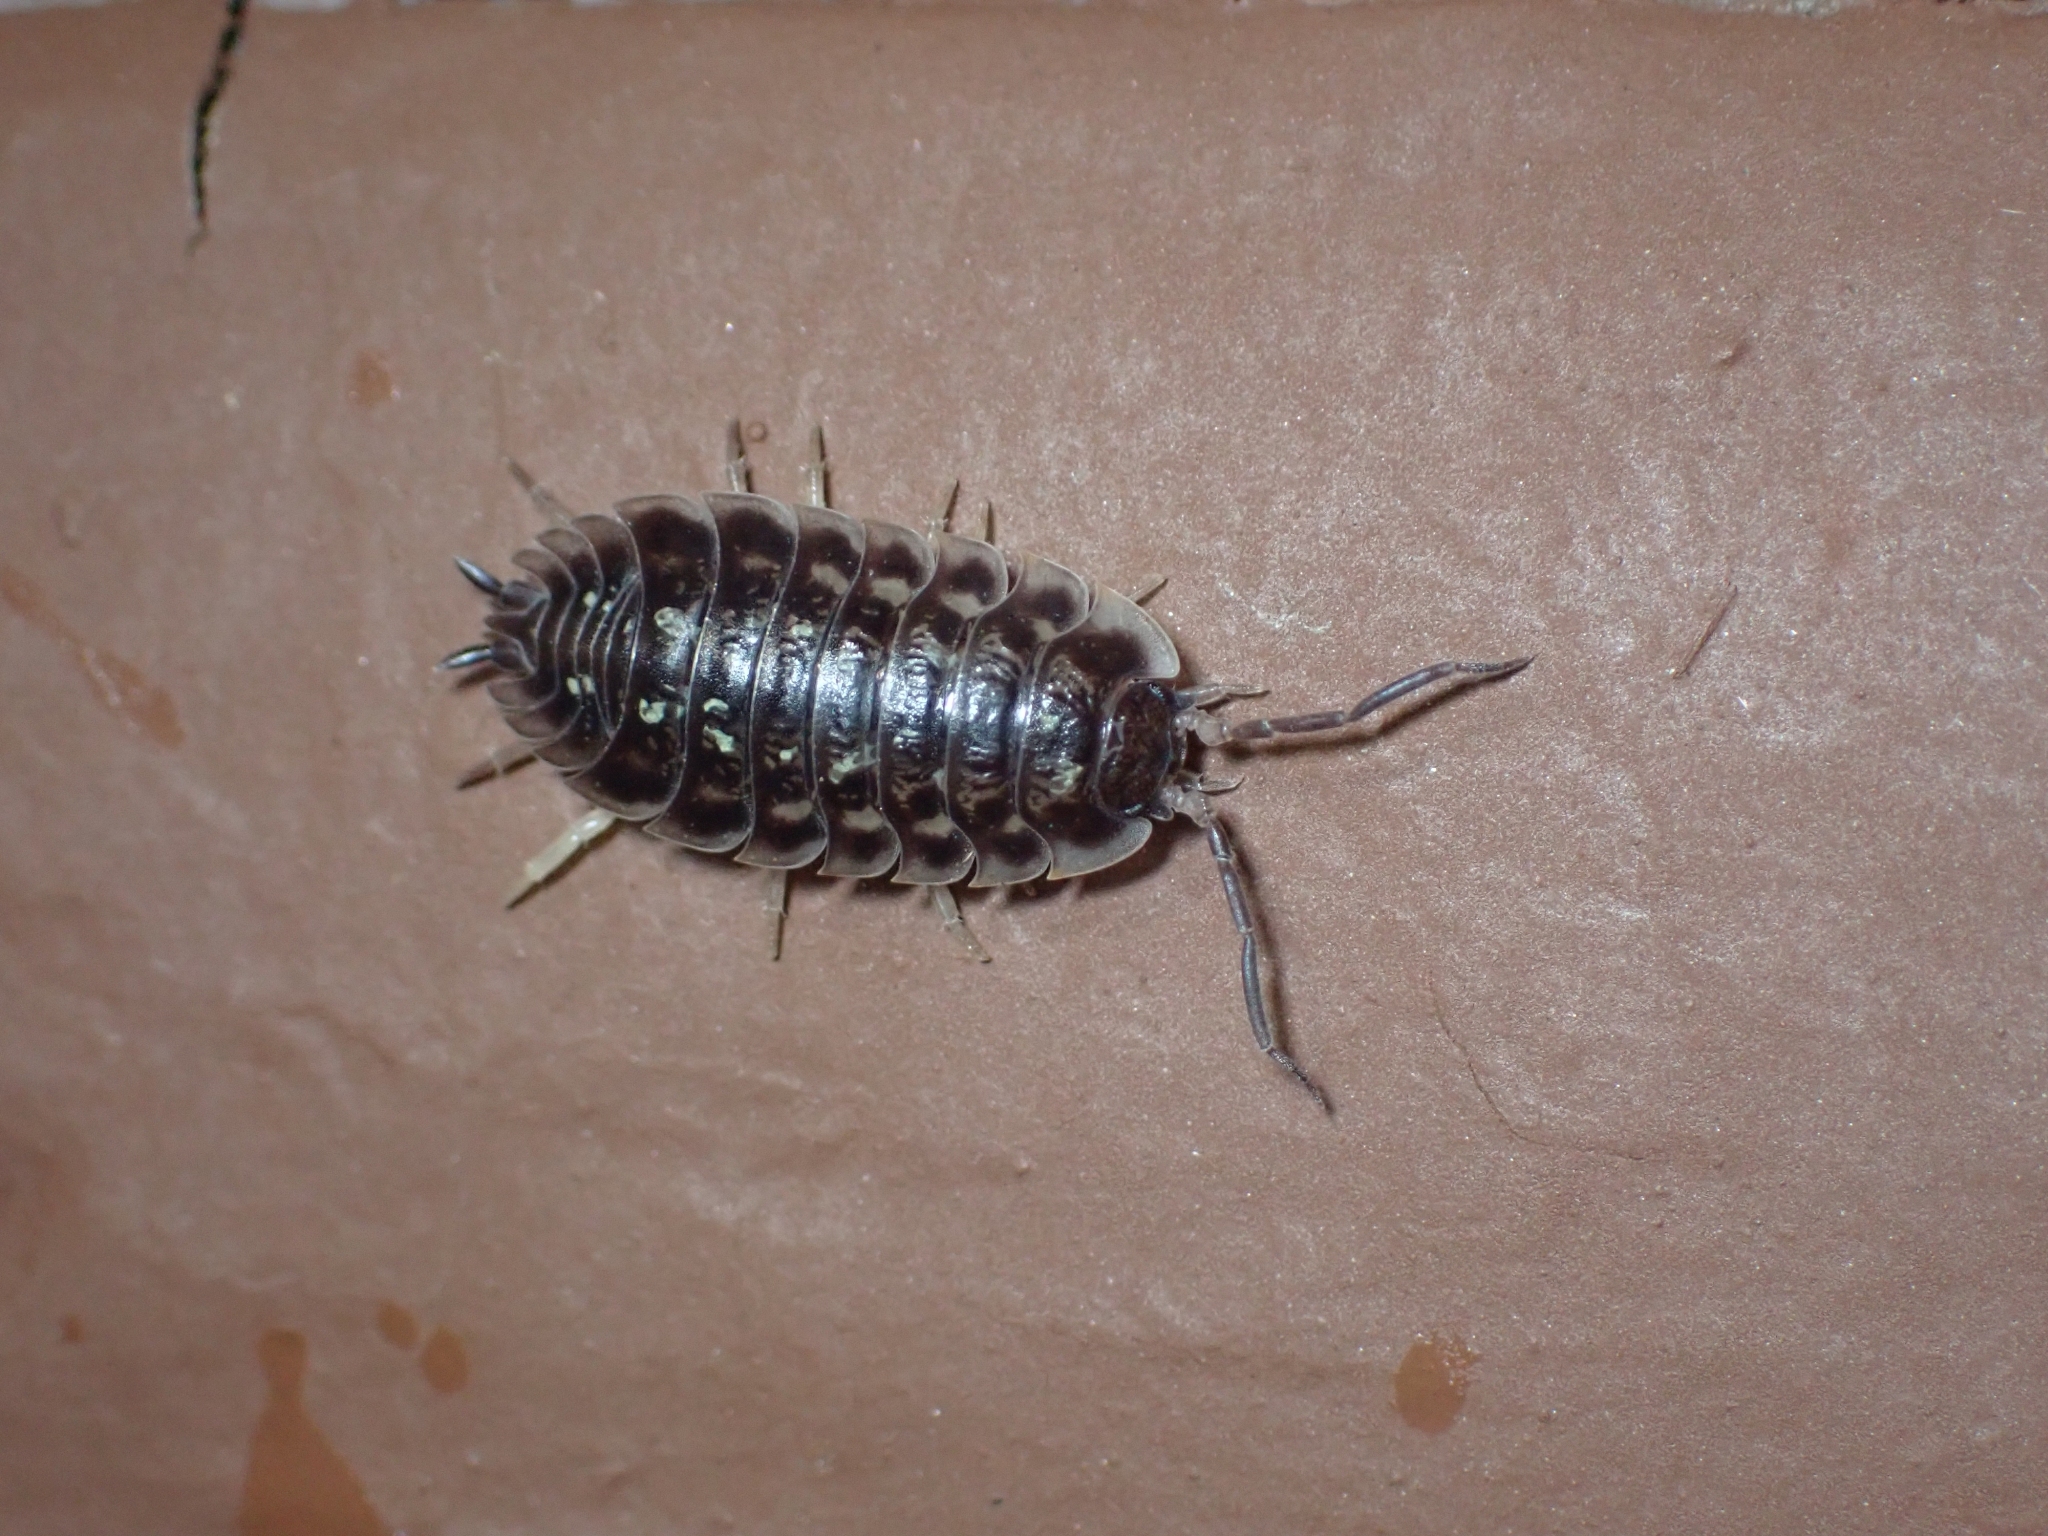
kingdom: Animalia
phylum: Arthropoda
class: Malacostraca
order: Isopoda
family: Oniscidae
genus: Oniscus
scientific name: Oniscus asellus
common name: Common shiny woodlouse
